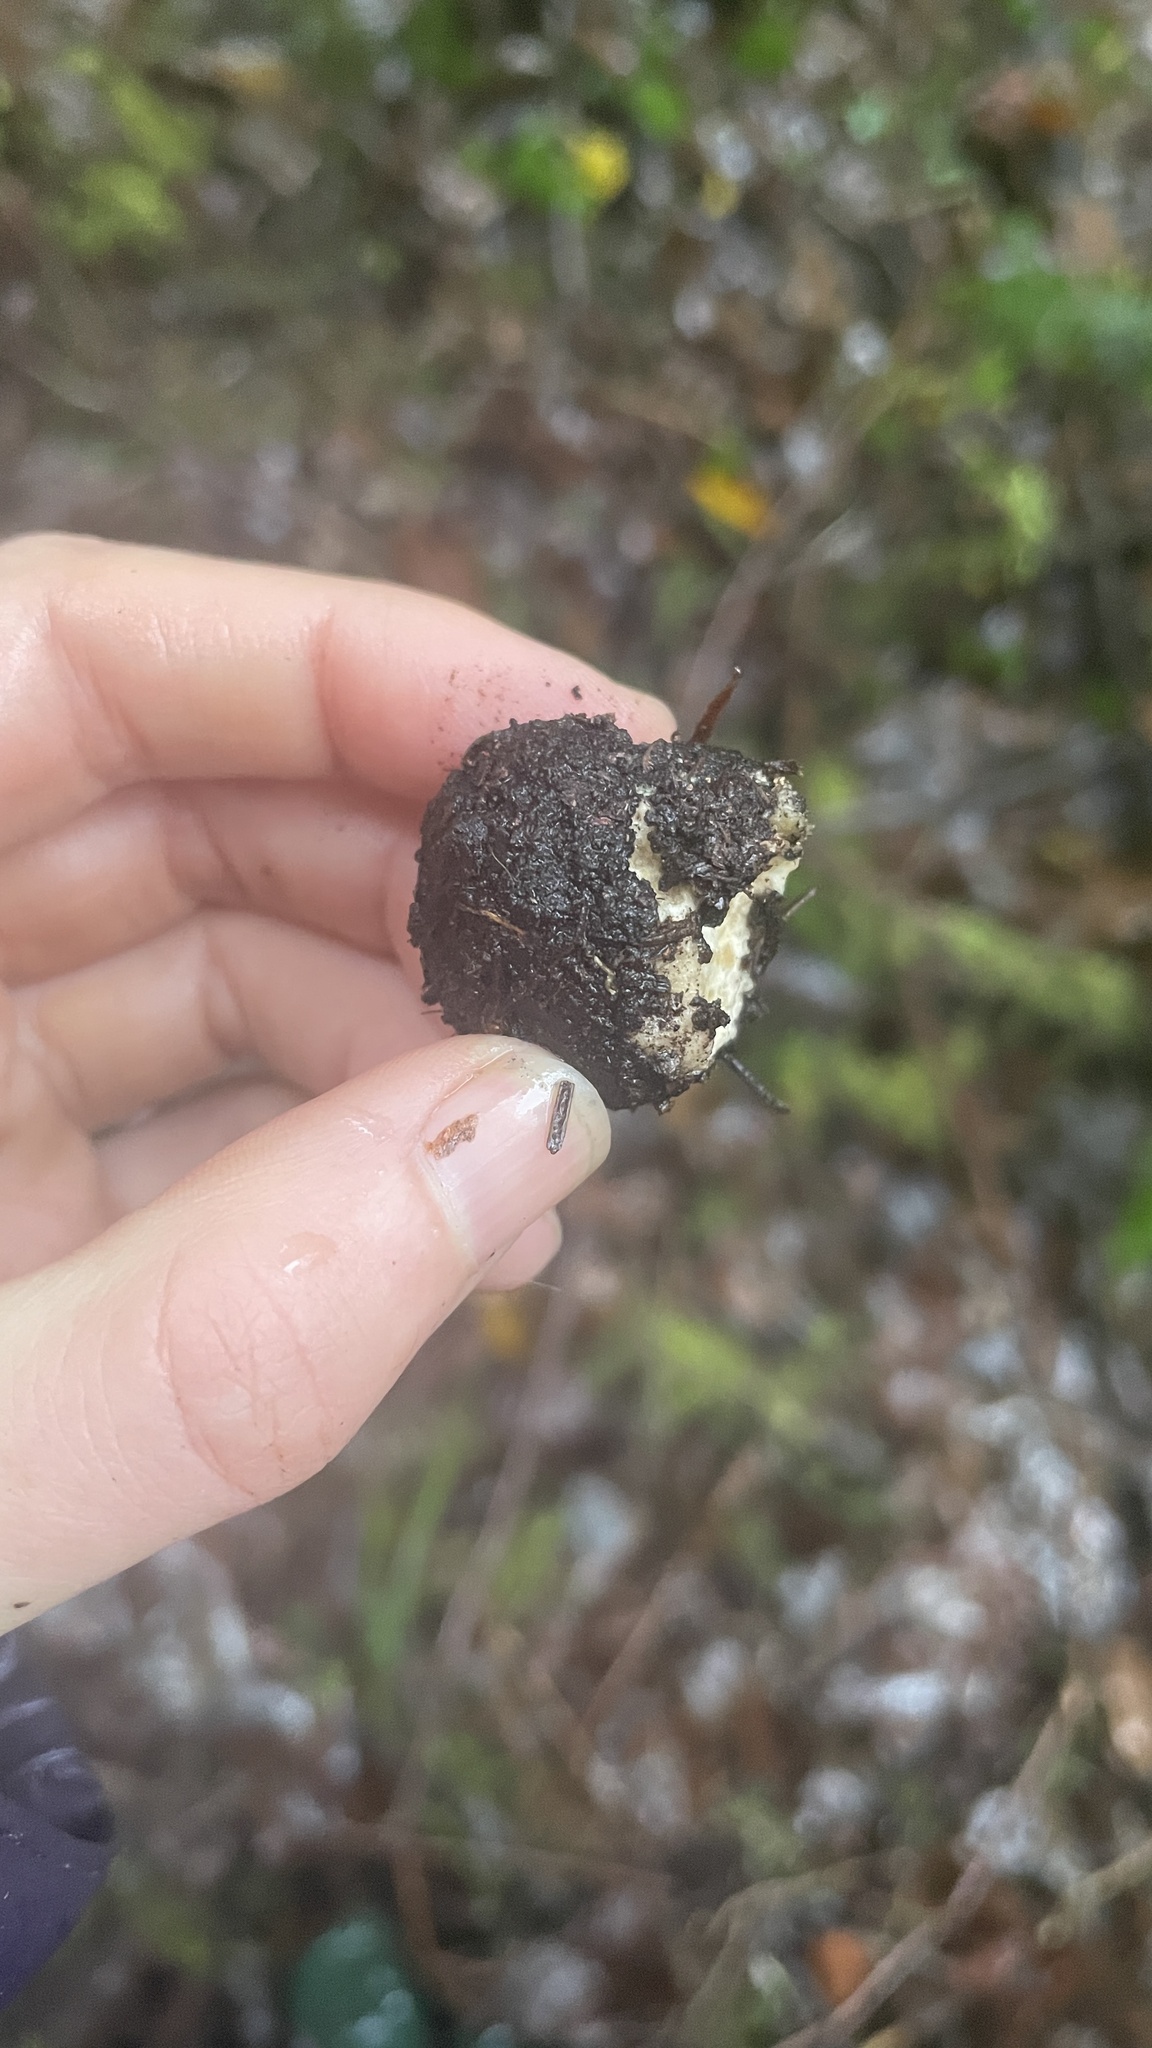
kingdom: Fungi
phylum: Ascomycota
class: Pezizomycetes
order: Pezizales
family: Morchellaceae
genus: Leucangium
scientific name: Leucangium carthusianum
